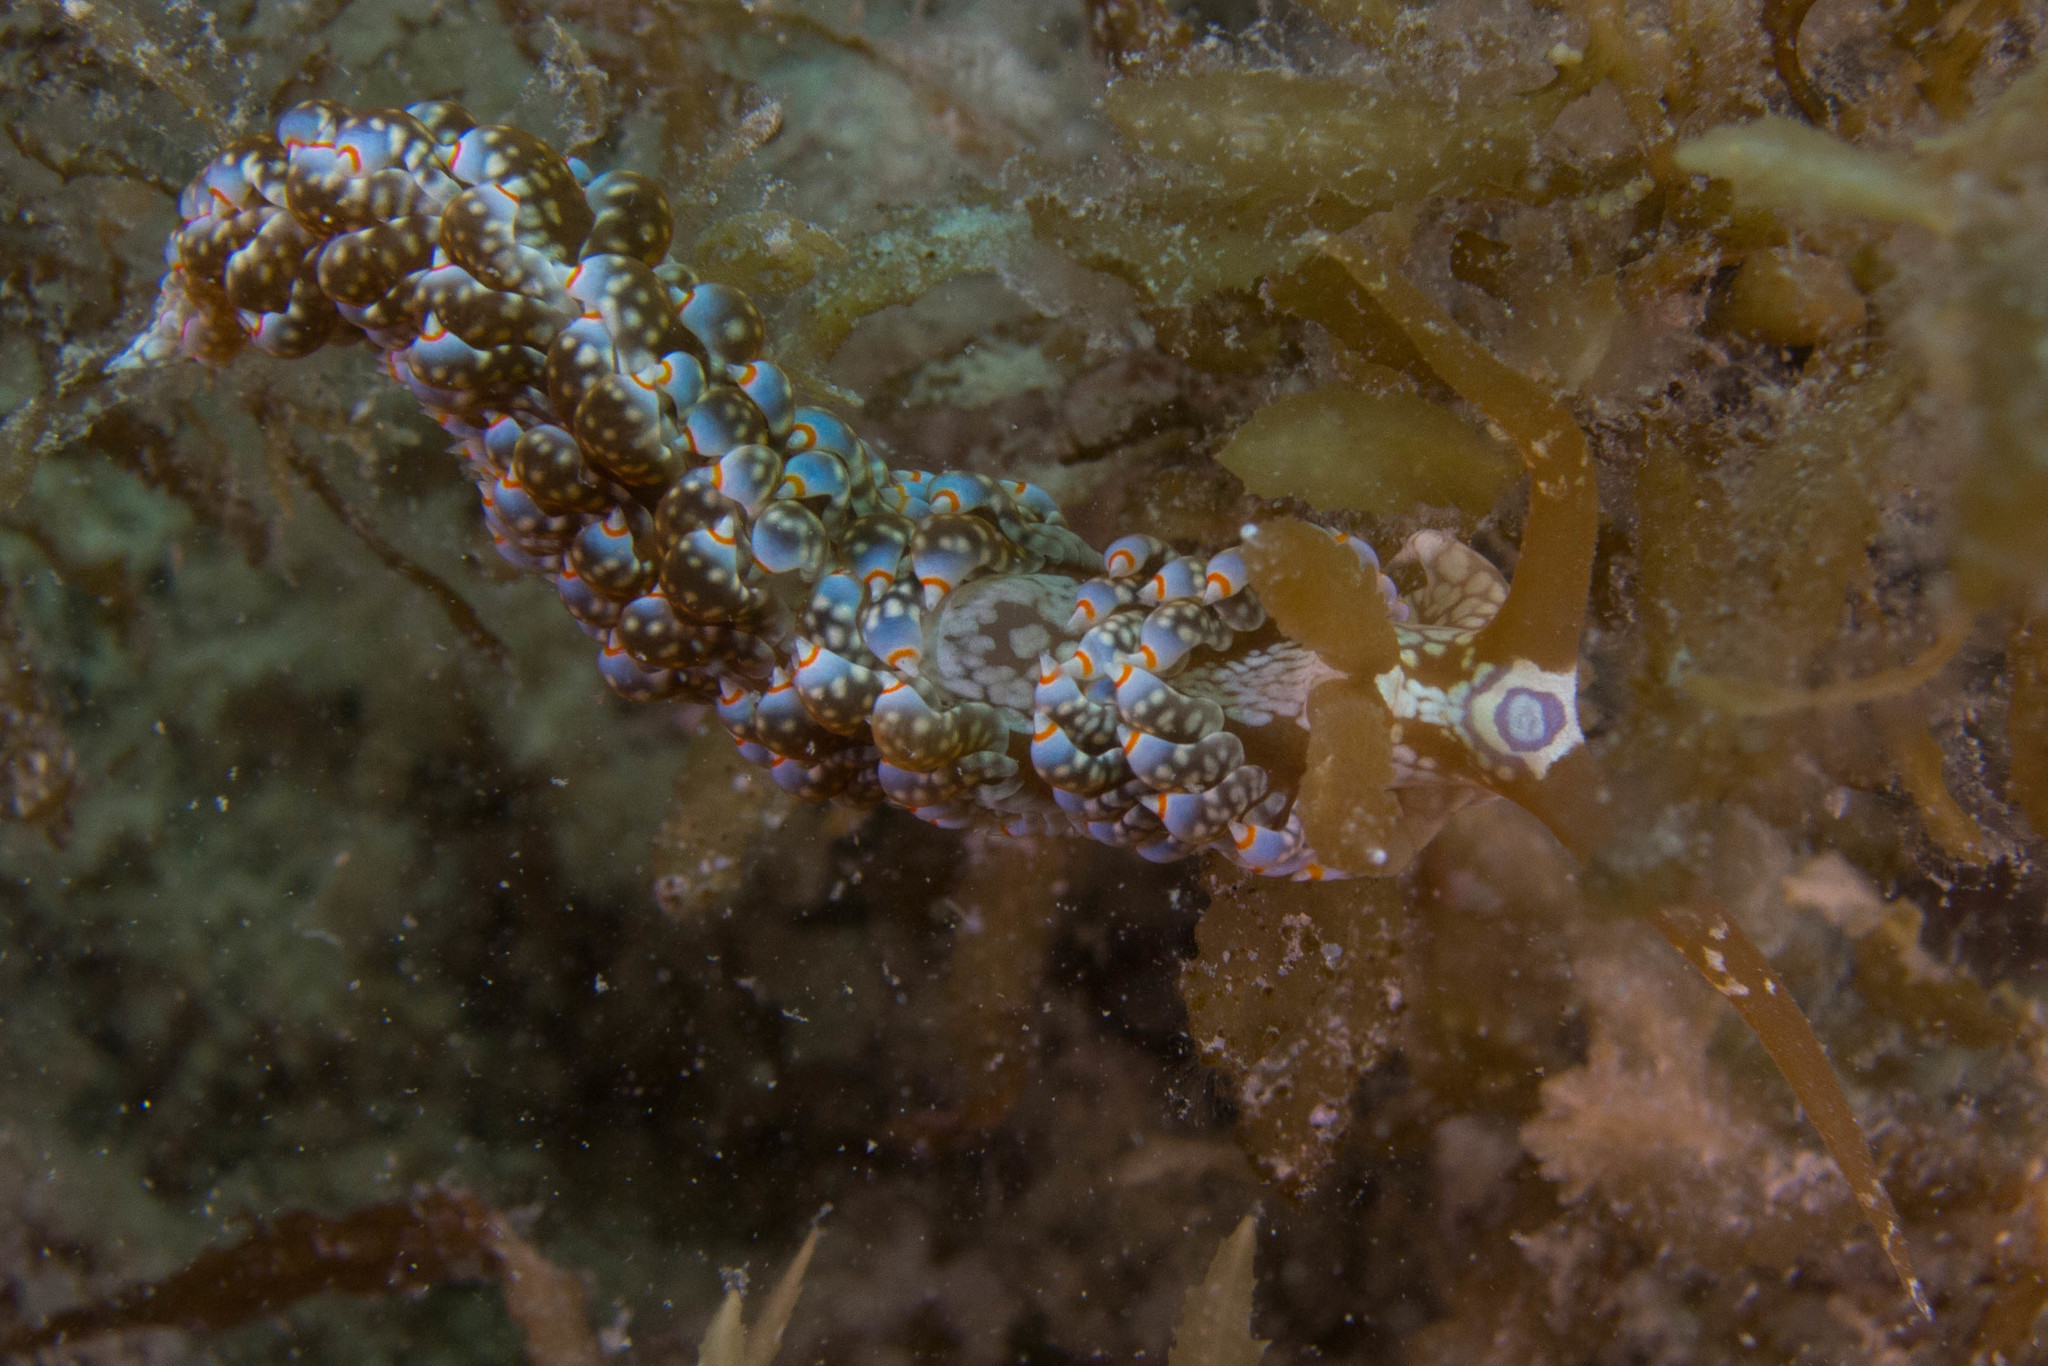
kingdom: Animalia
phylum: Mollusca
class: Gastropoda
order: Nudibranchia
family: Aeolidiidae
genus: Baeolidia
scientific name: Baeolidia australis
